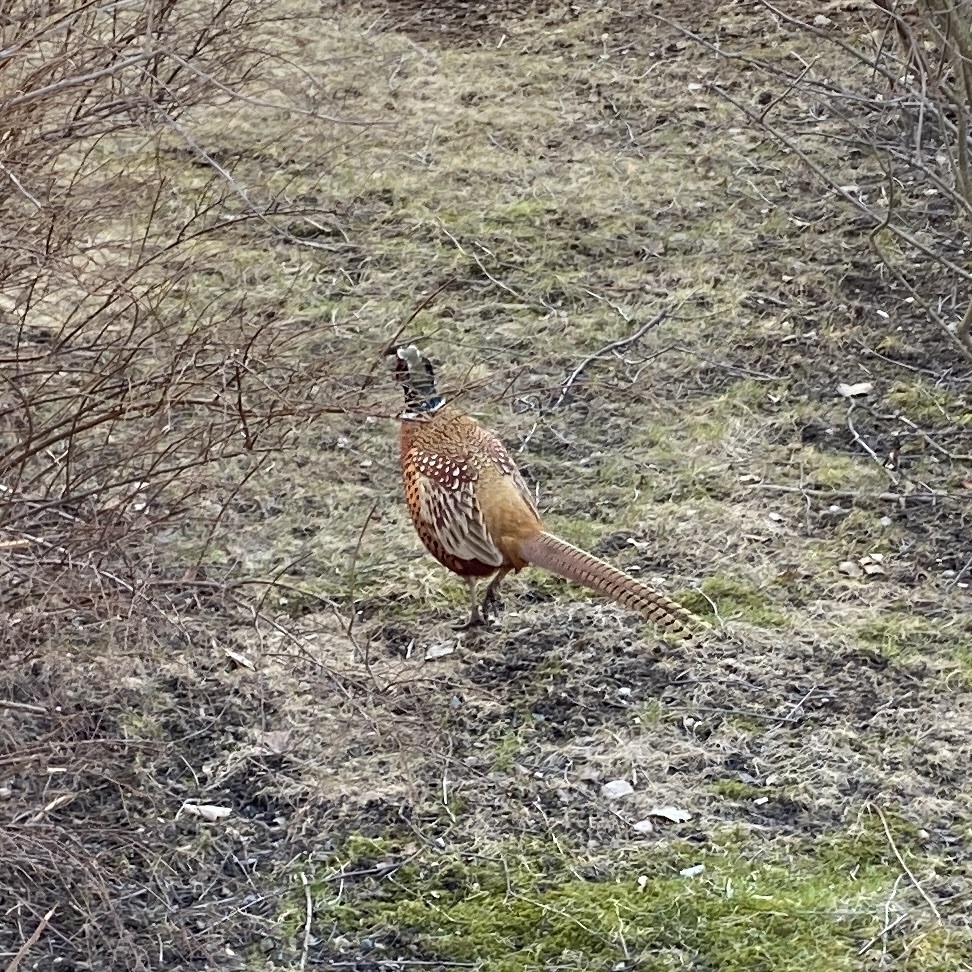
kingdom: Animalia
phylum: Chordata
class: Aves
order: Galliformes
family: Phasianidae
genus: Phasianus
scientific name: Phasianus colchicus
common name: Common pheasant
